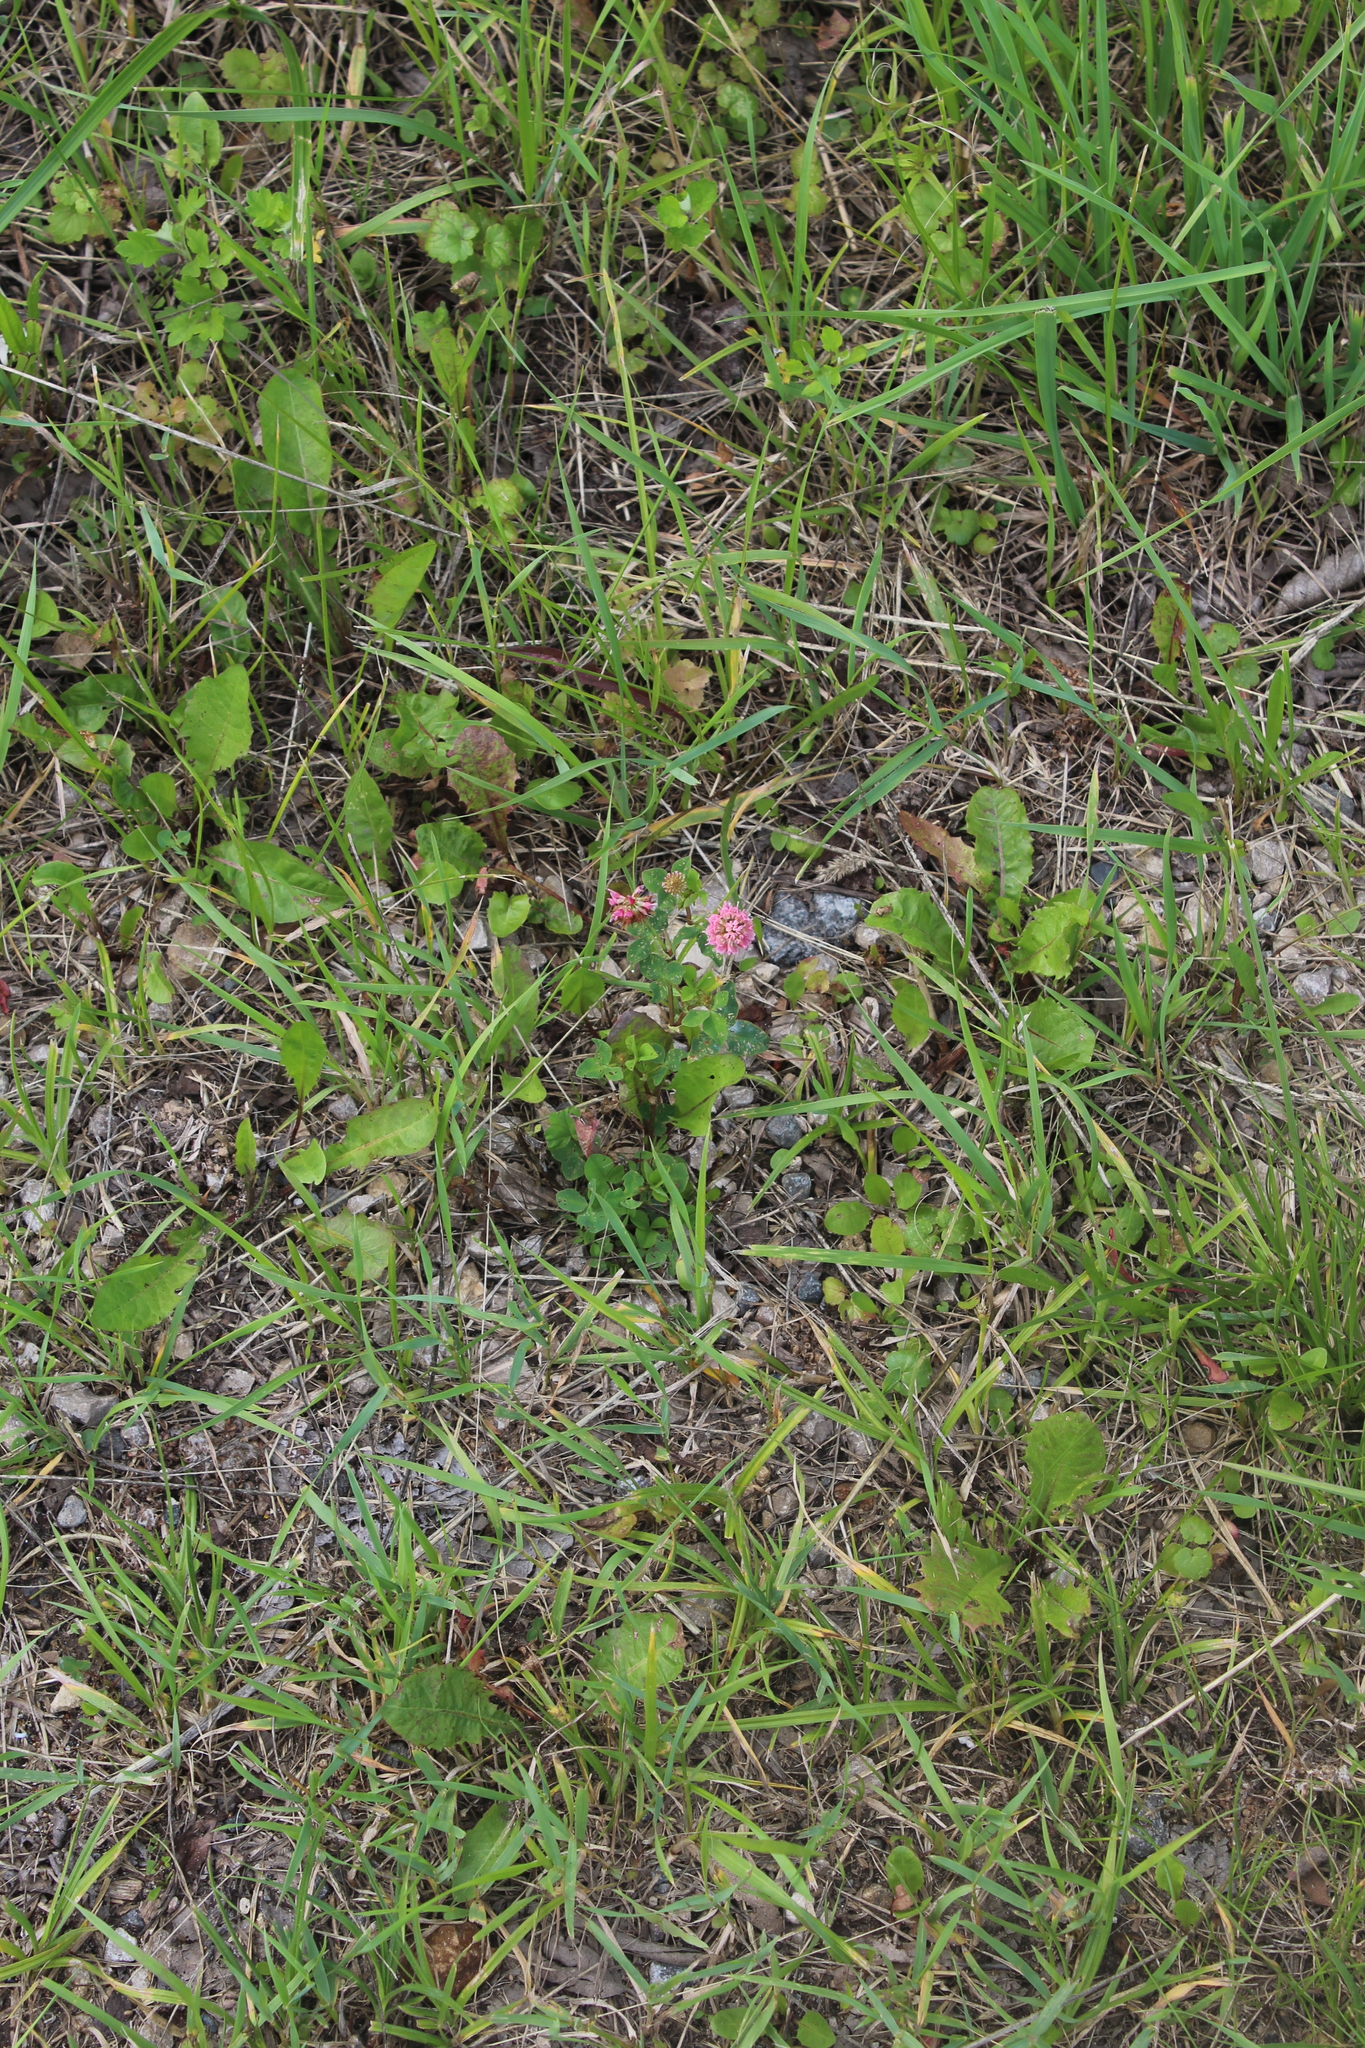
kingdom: Plantae
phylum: Tracheophyta
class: Magnoliopsida
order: Fabales
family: Fabaceae
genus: Trifolium
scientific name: Trifolium hybridum
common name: Alsike clover
